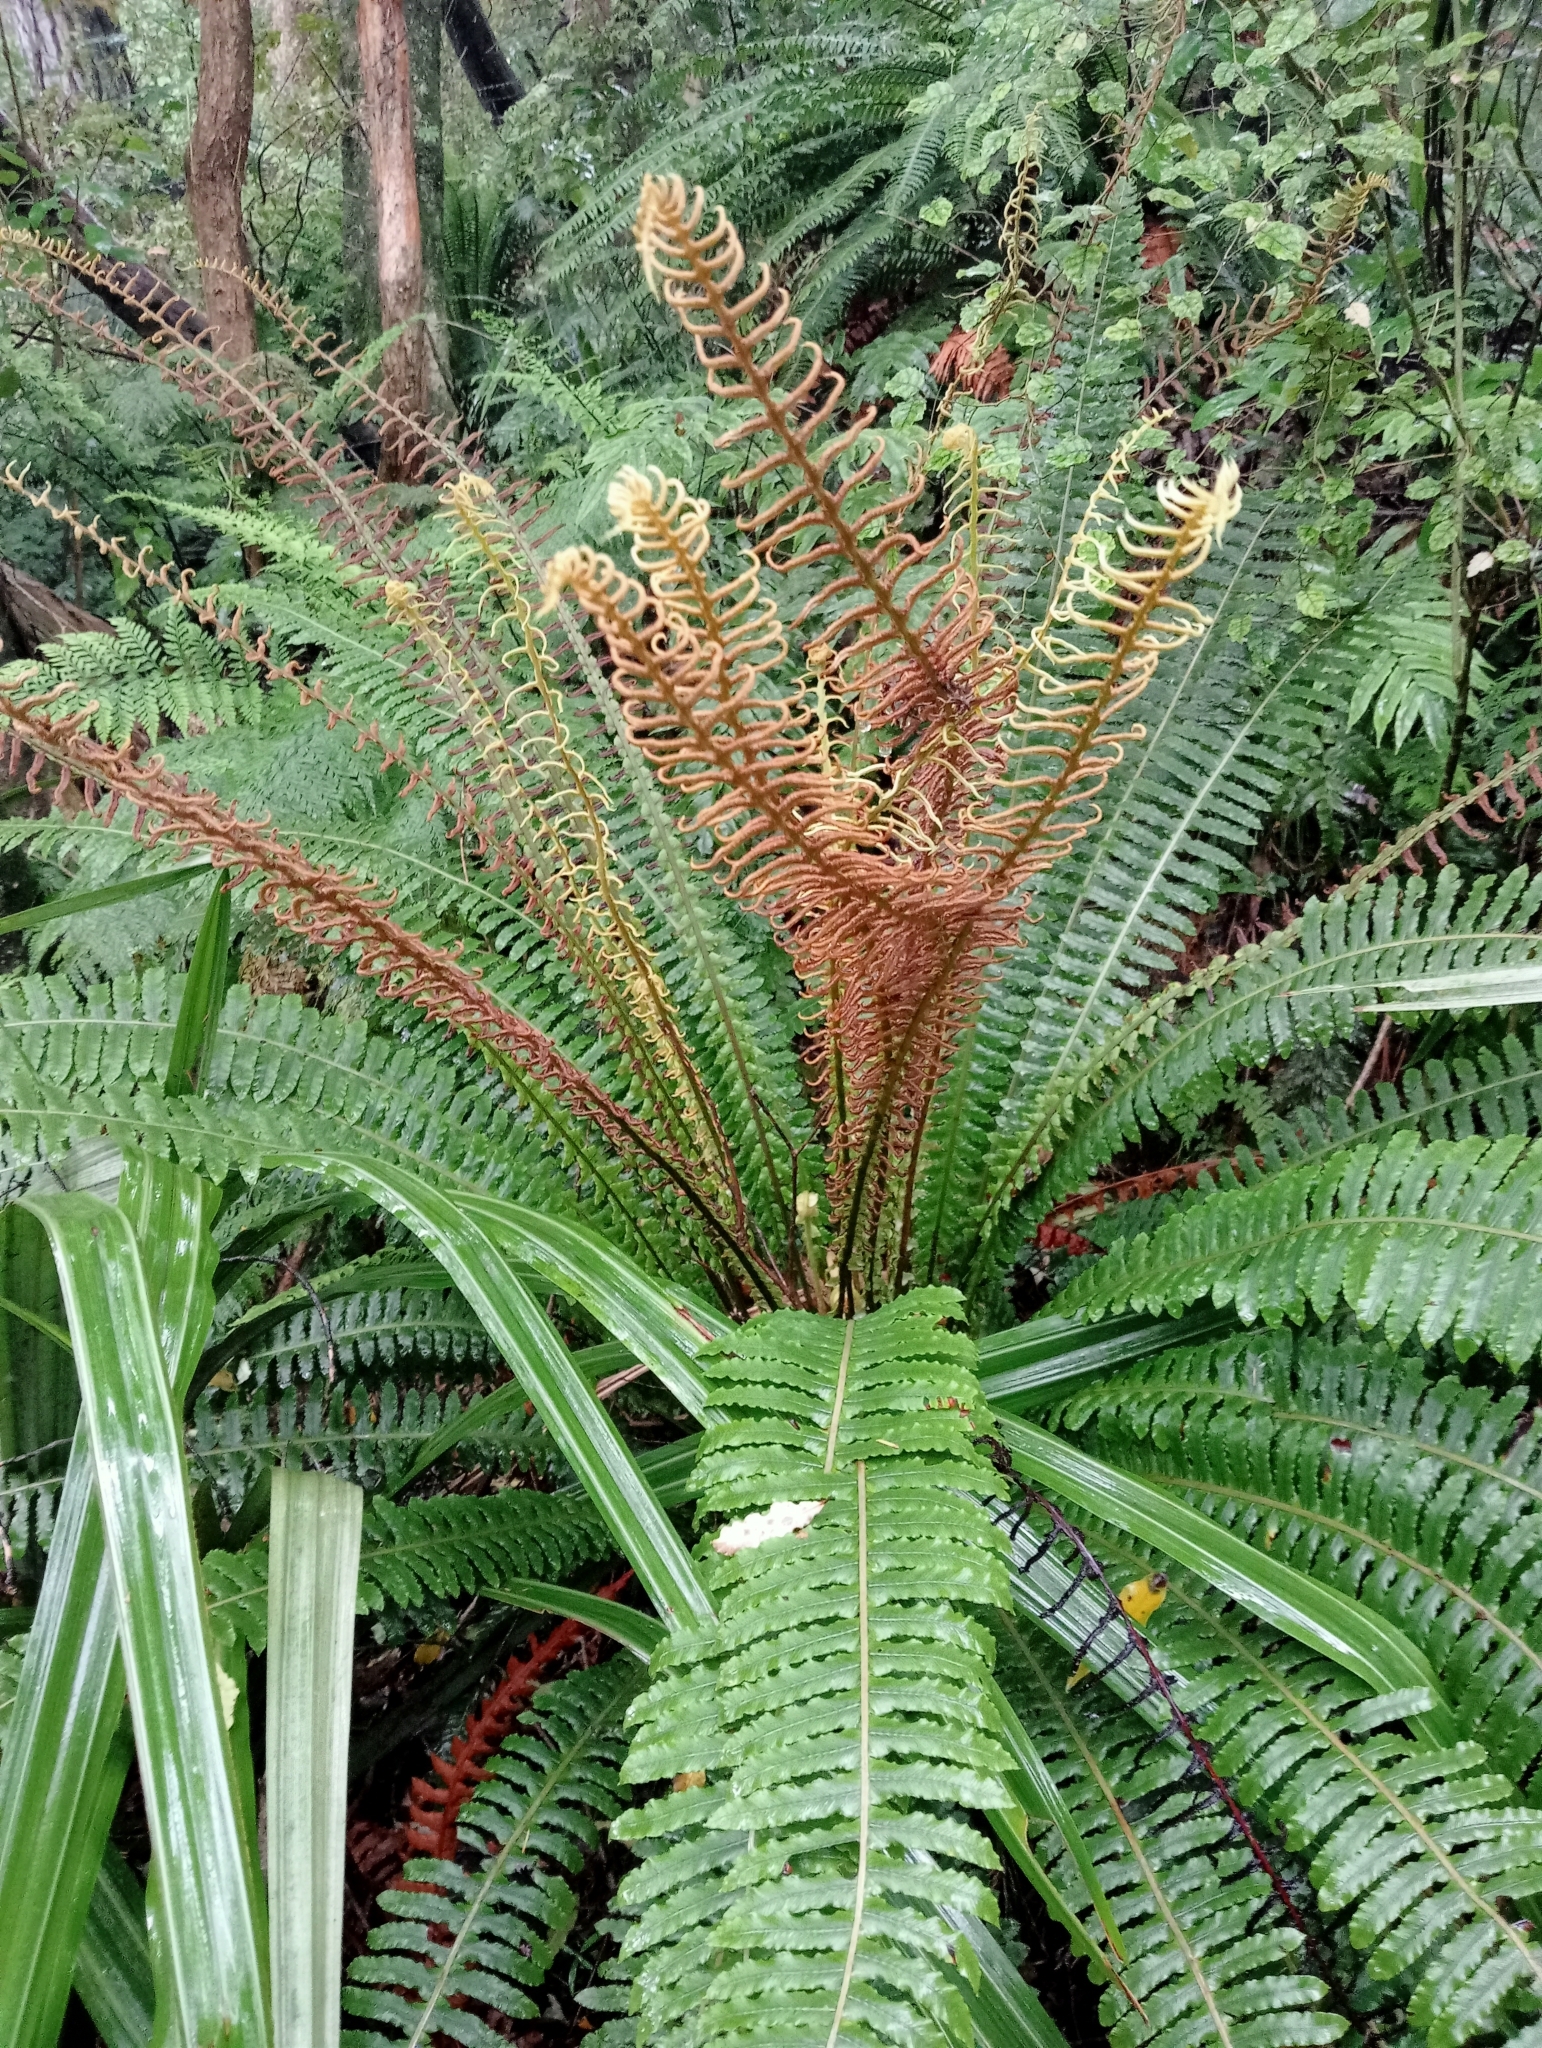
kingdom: Plantae
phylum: Tracheophyta
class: Polypodiopsida
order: Polypodiales
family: Blechnaceae
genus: Lomaria
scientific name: Lomaria discolor
